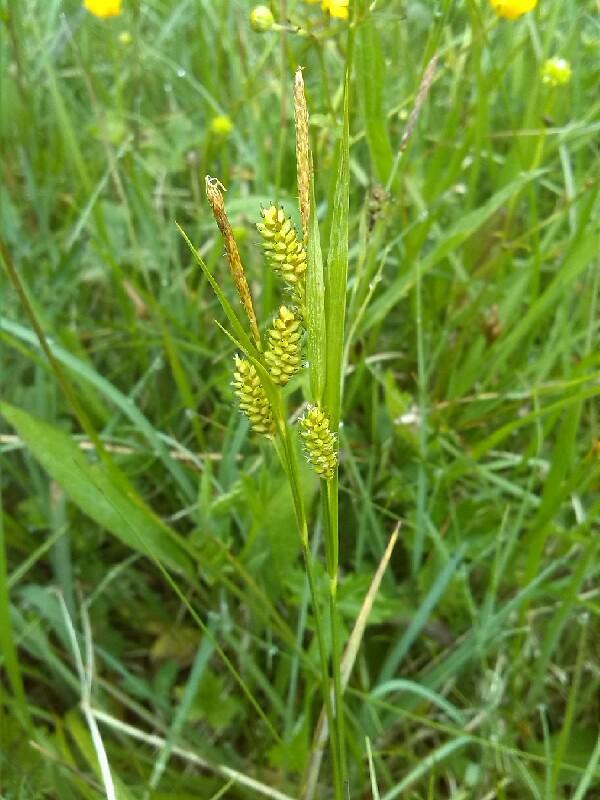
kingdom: Plantae
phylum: Tracheophyta
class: Liliopsida
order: Poales
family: Cyperaceae
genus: Carex
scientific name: Carex hostiana
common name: Tawny sedge
